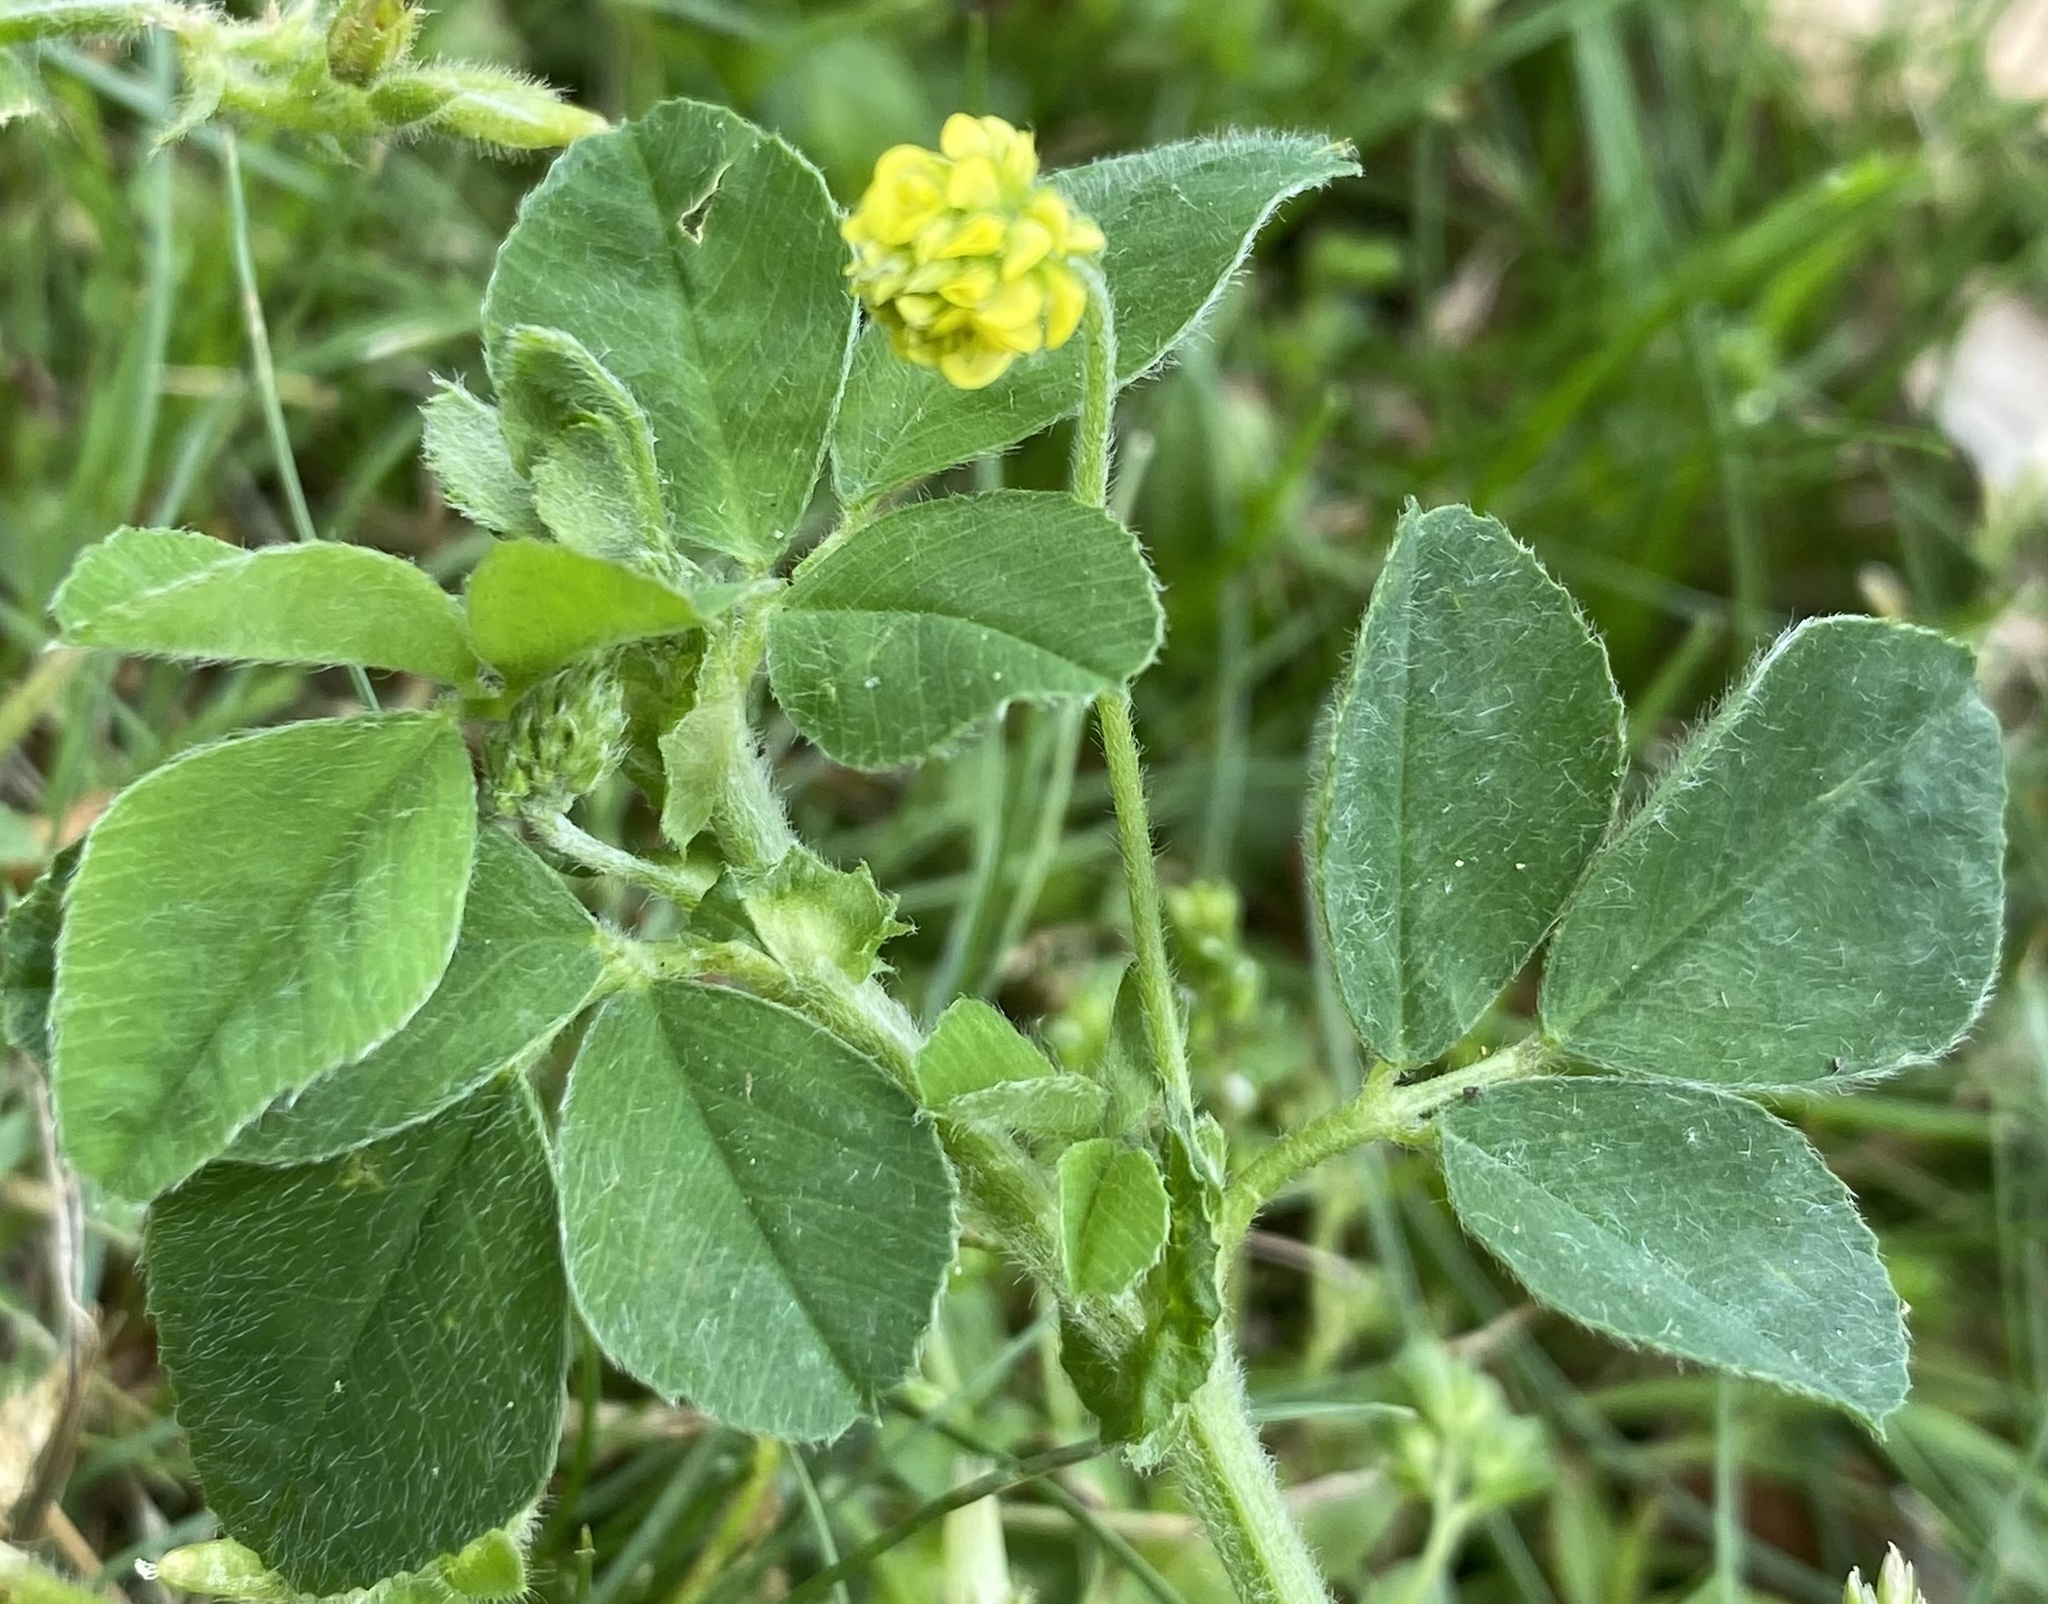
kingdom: Plantae
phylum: Tracheophyta
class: Magnoliopsida
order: Fabales
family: Fabaceae
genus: Medicago
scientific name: Medicago lupulina
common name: Black medick
